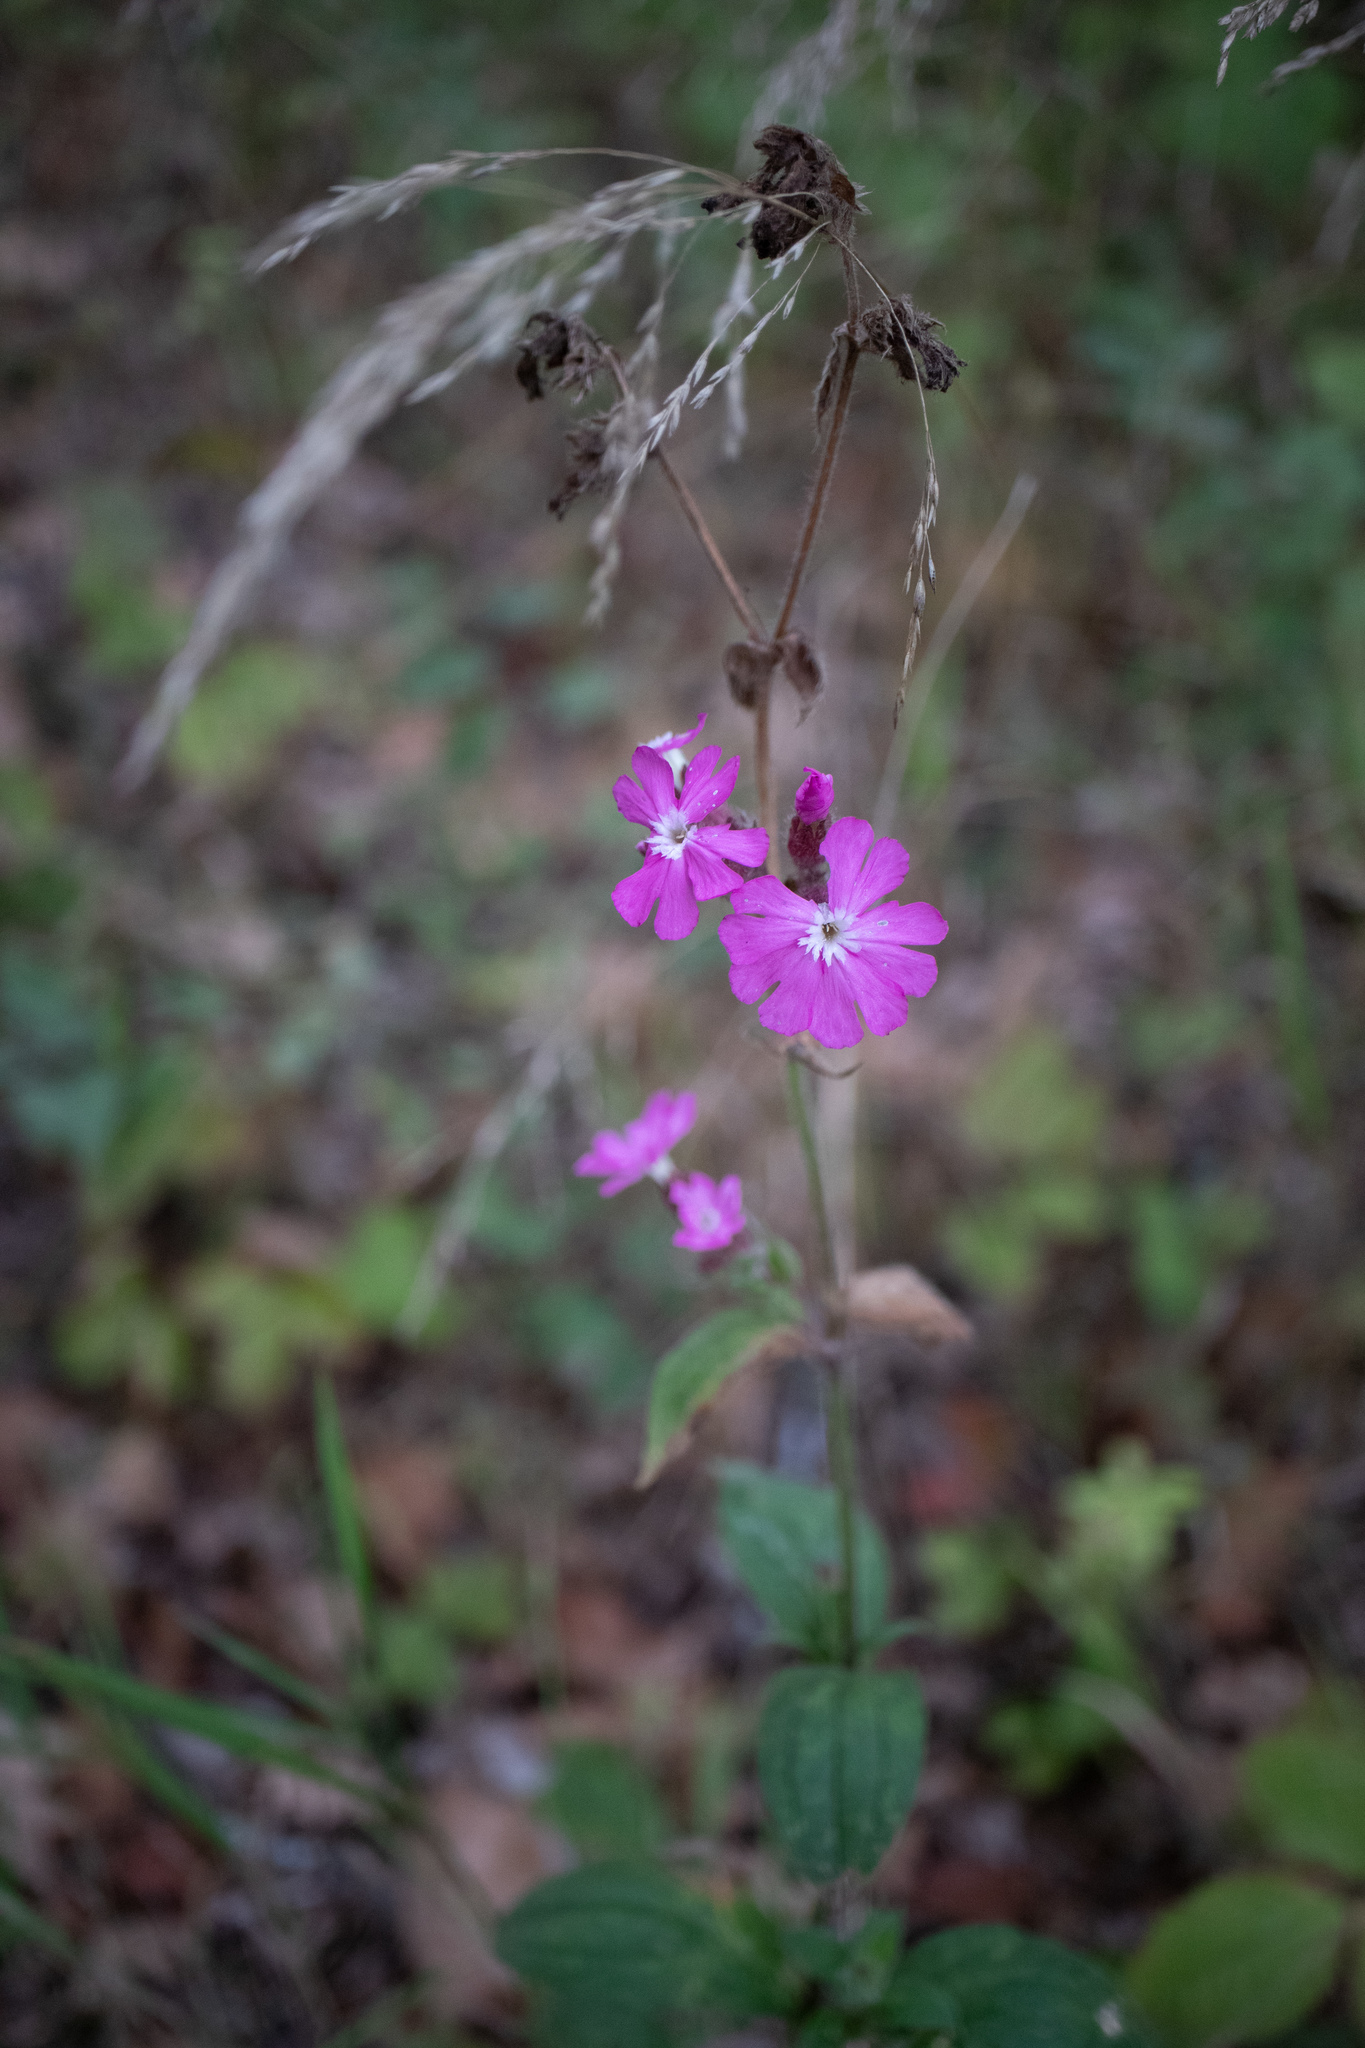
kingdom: Plantae
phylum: Tracheophyta
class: Magnoliopsida
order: Caryophyllales
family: Caryophyllaceae
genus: Silene
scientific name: Silene dioica
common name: Red campion
